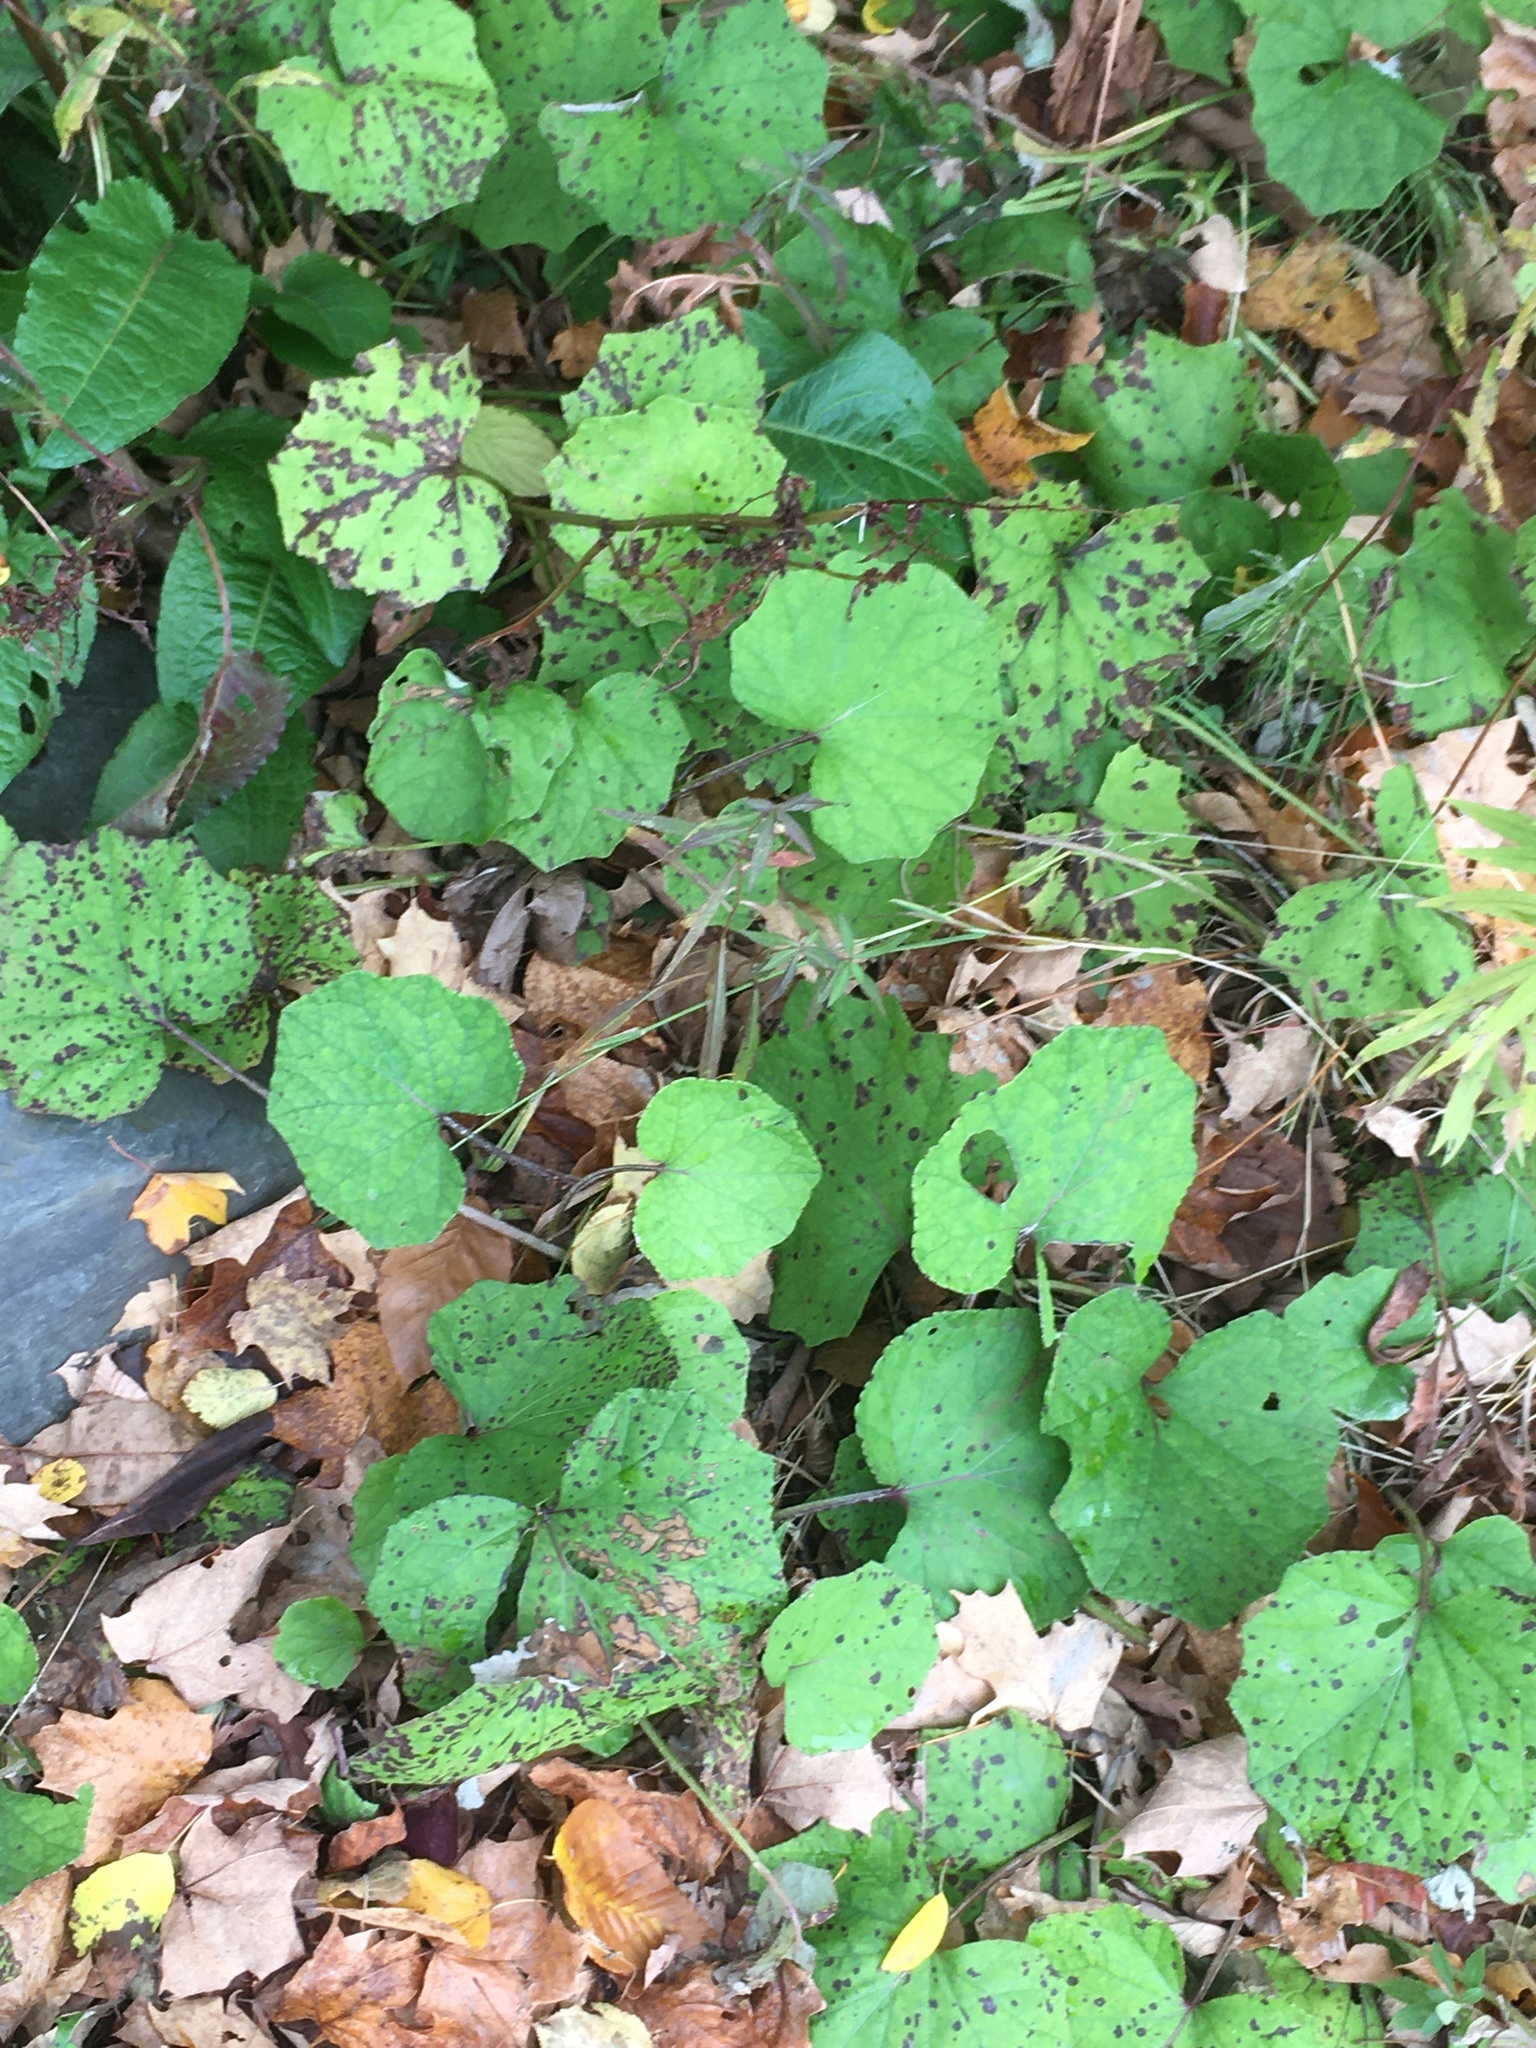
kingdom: Plantae
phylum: Tracheophyta
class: Magnoliopsida
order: Asterales
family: Asteraceae
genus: Tussilago
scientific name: Tussilago farfara
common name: Coltsfoot
